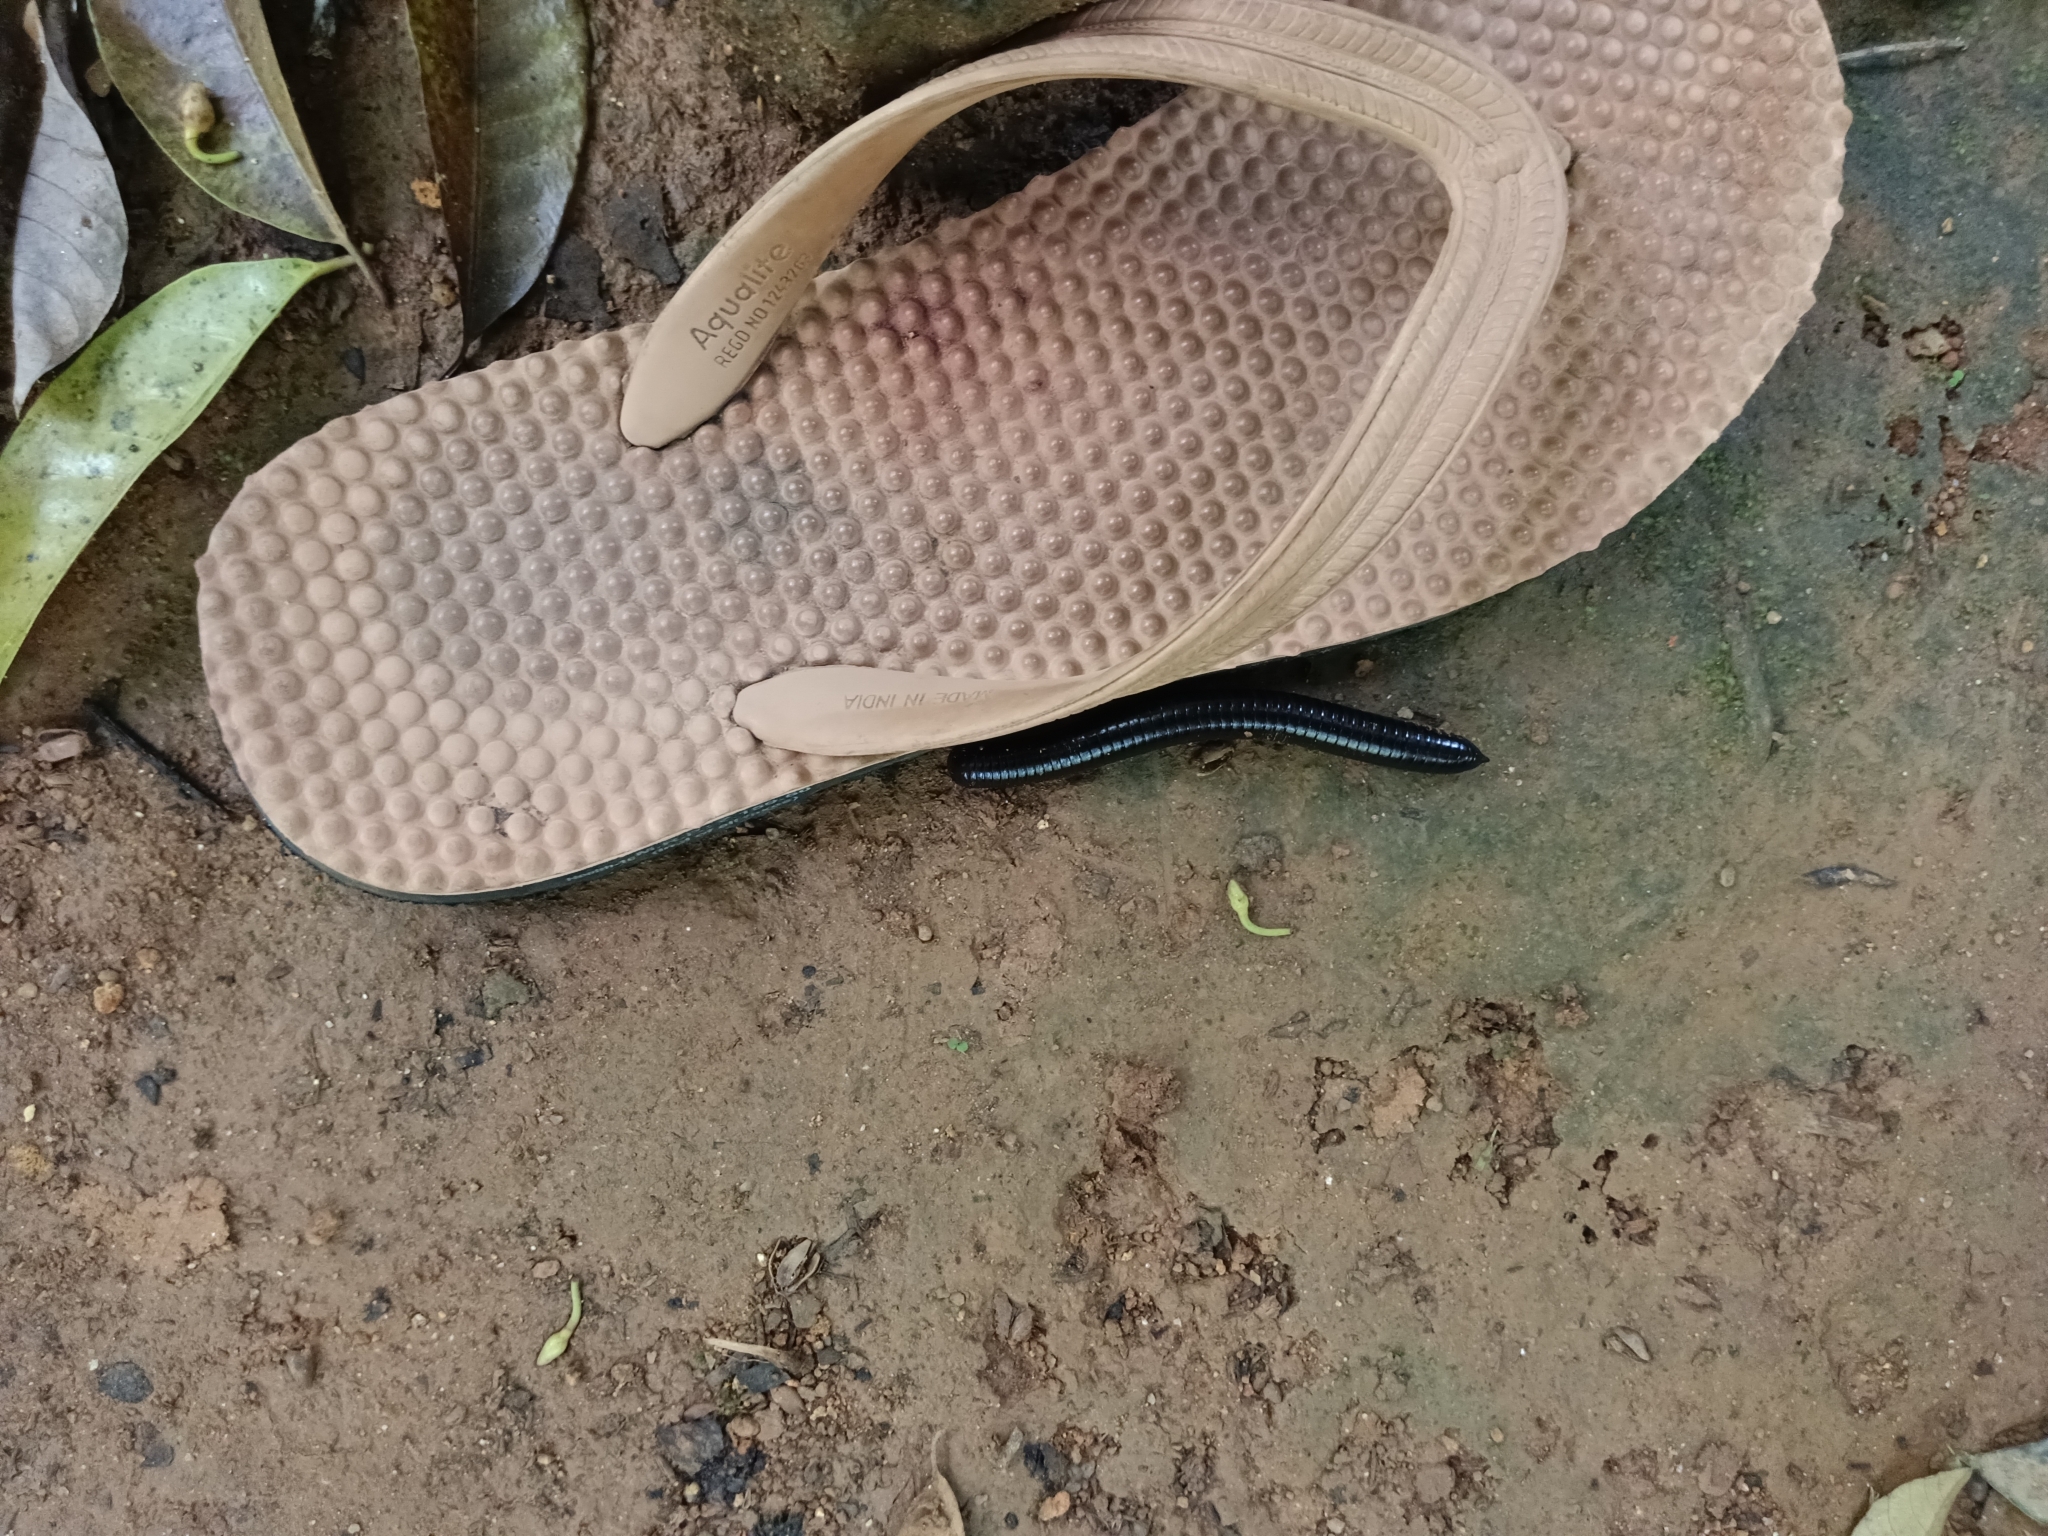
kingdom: Animalia
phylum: Arthropoda
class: Diplopoda
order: Spirostreptida
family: Harpagophoridae
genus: Phyllogonostreptus
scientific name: Phyllogonostreptus nigrolabiatus
